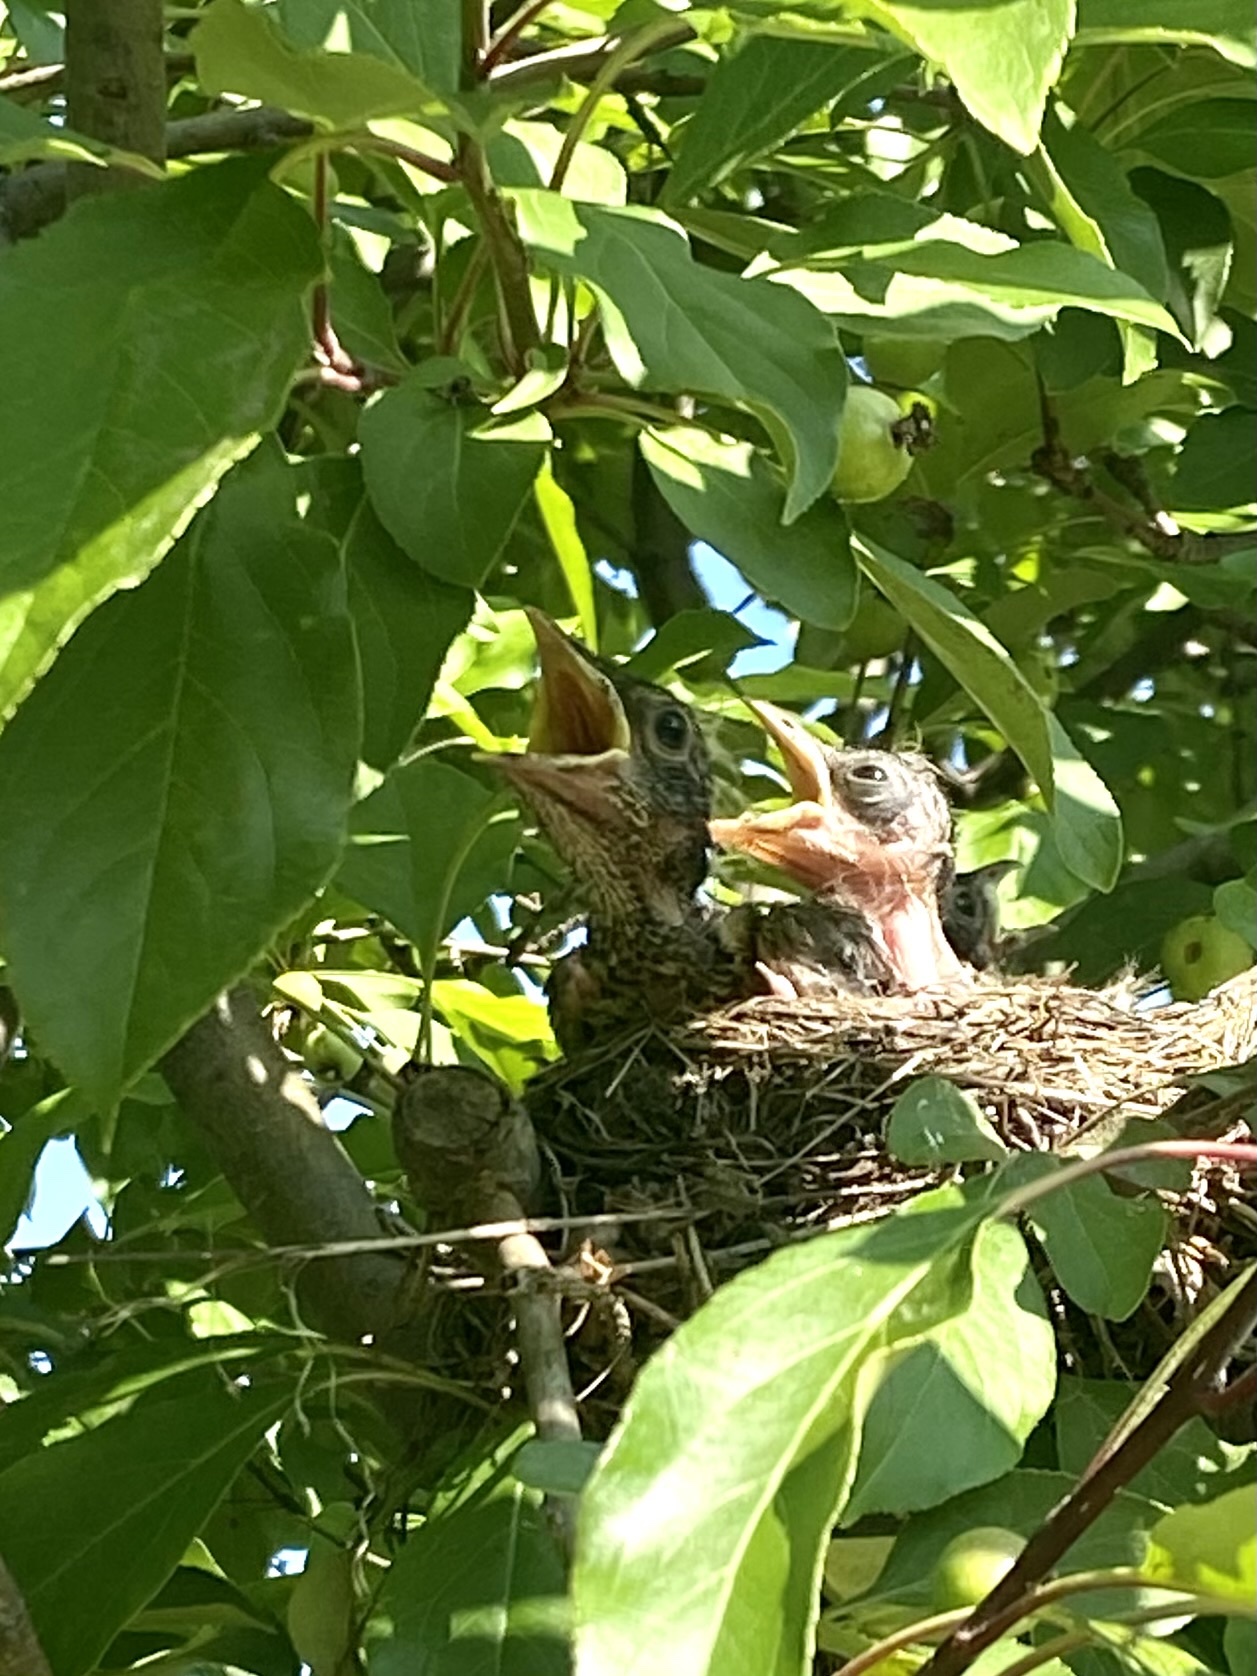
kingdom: Animalia
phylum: Chordata
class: Aves
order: Passeriformes
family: Turdidae
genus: Turdus
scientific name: Turdus migratorius
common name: American robin
